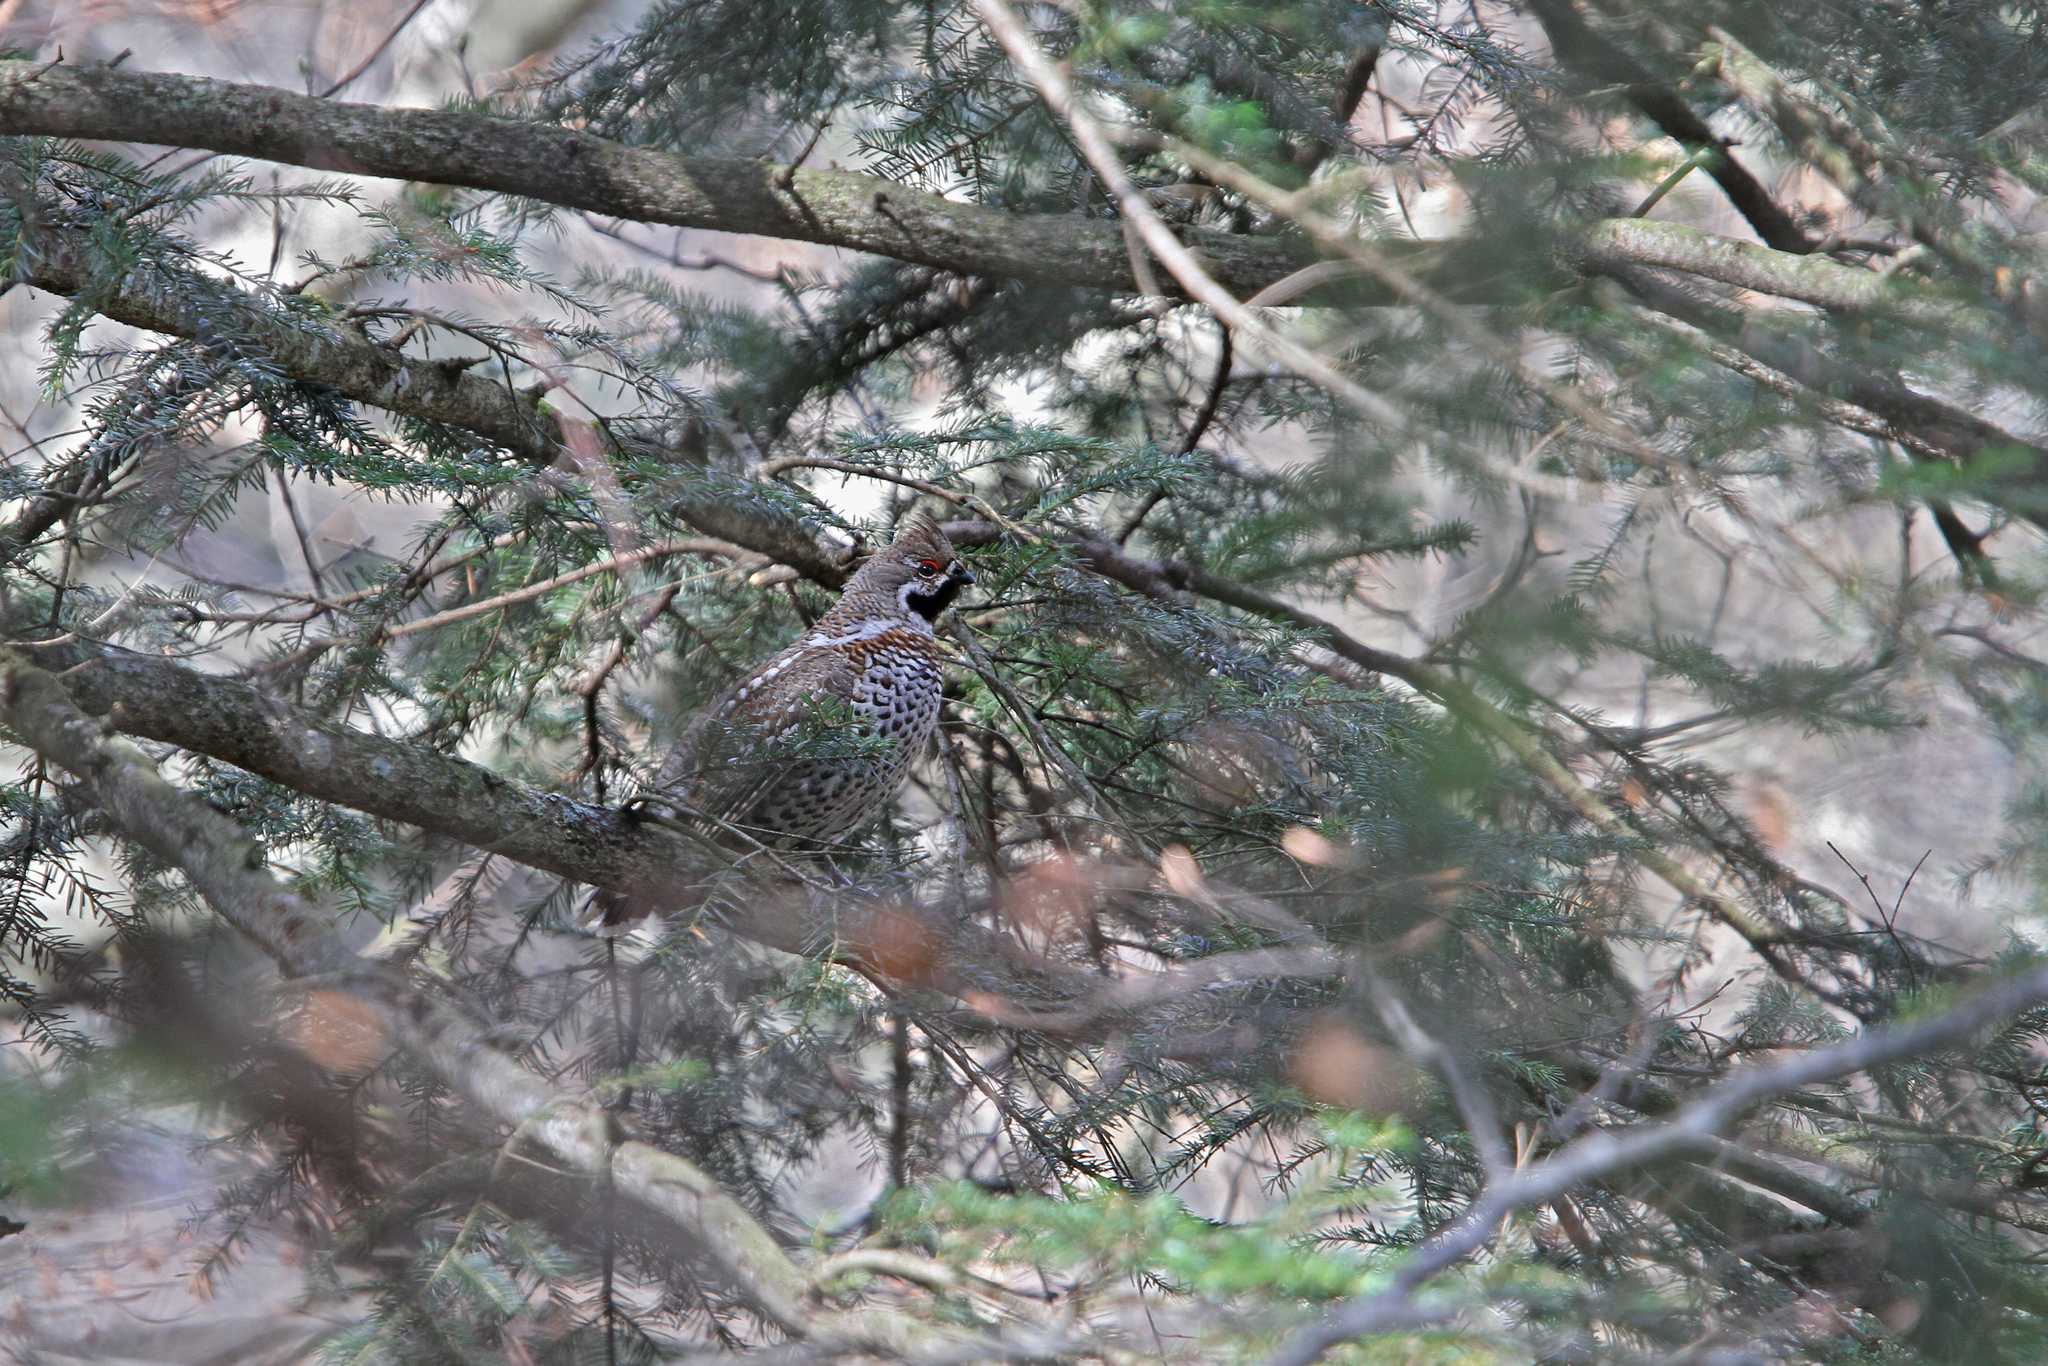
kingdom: Animalia
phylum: Chordata
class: Aves
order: Galliformes
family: Phasianidae
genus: Tetrastes
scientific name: Tetrastes bonasia
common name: Hazel grouse
